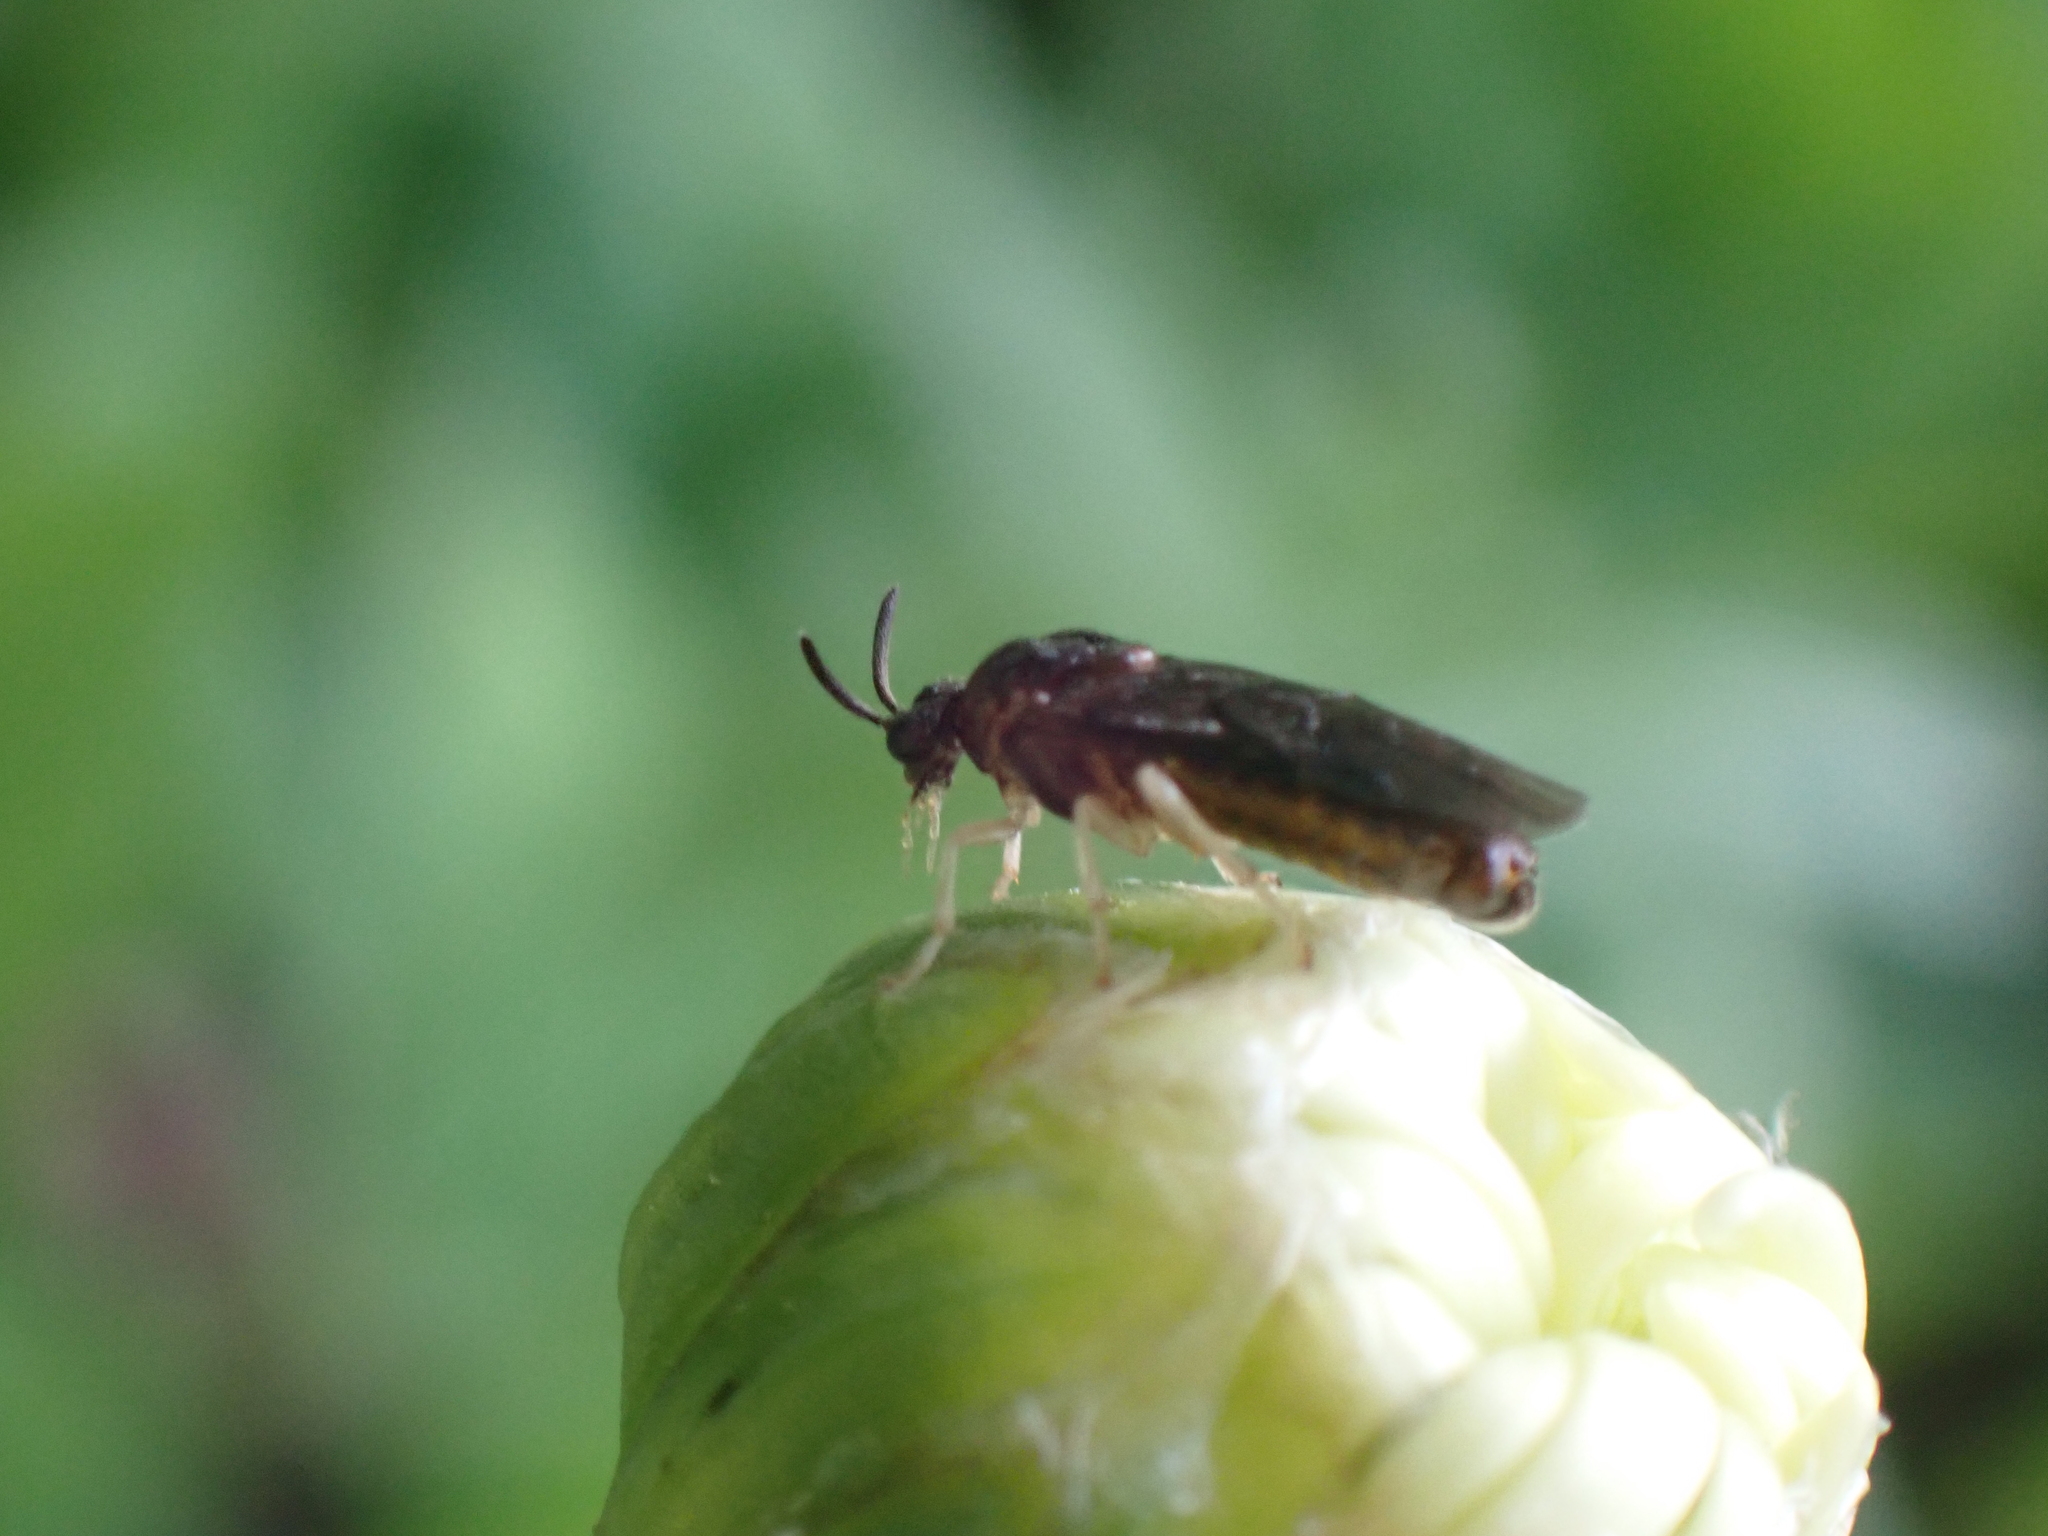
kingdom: Animalia
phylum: Arthropoda
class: Insecta
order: Hymenoptera
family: Argidae
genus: Aproceros
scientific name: Aproceros leucopoda
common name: Zig-zag elm sawfly
